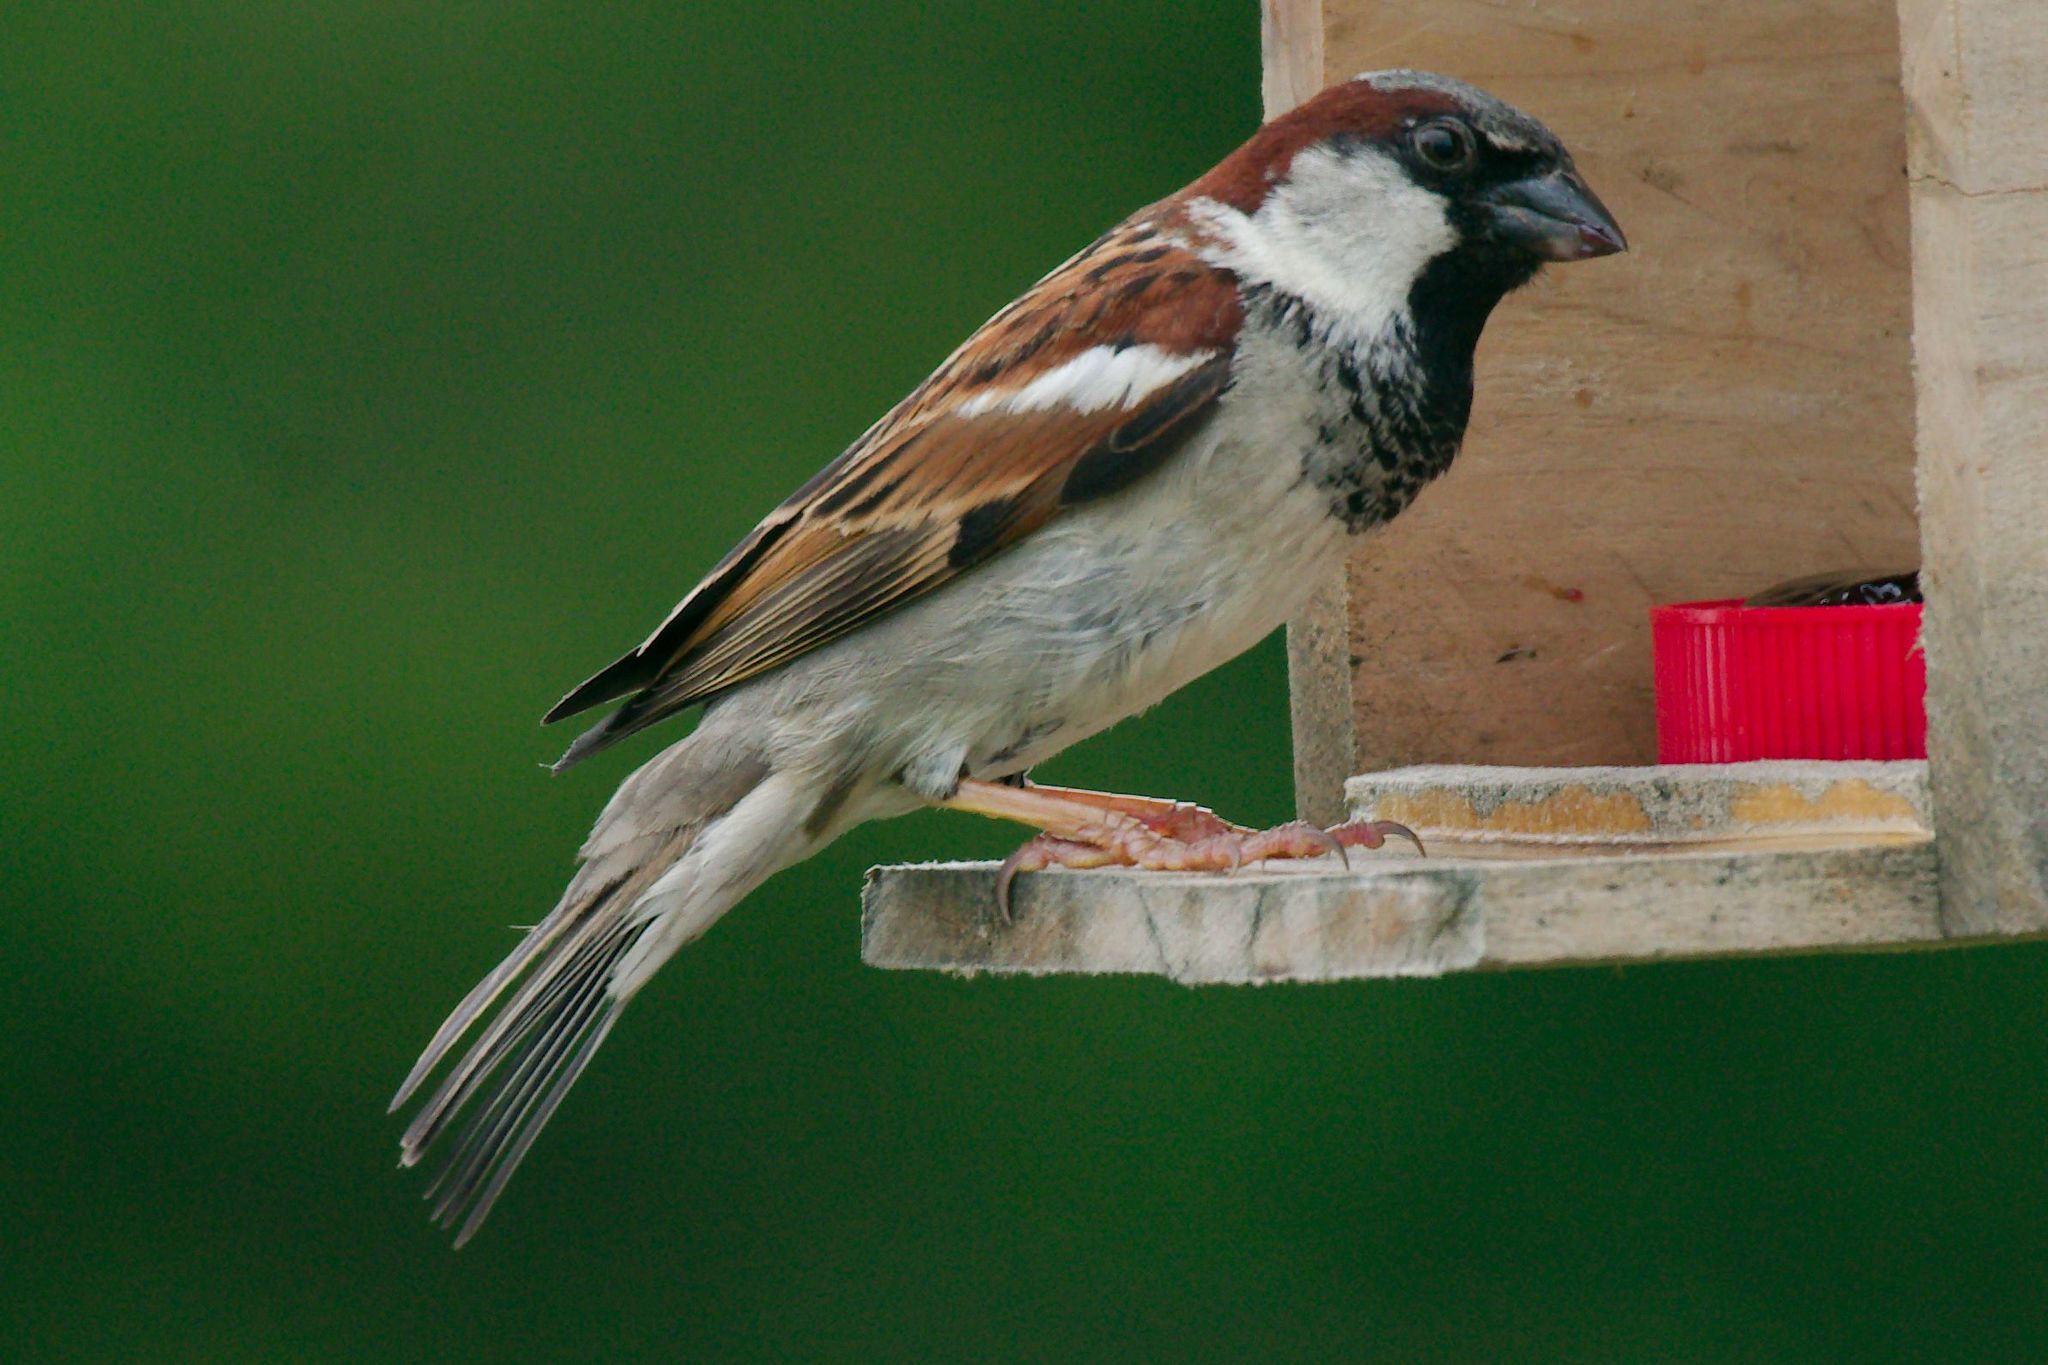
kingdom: Animalia
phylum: Chordata
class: Aves
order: Passeriformes
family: Passeridae
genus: Passer
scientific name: Passer domesticus
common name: House sparrow
